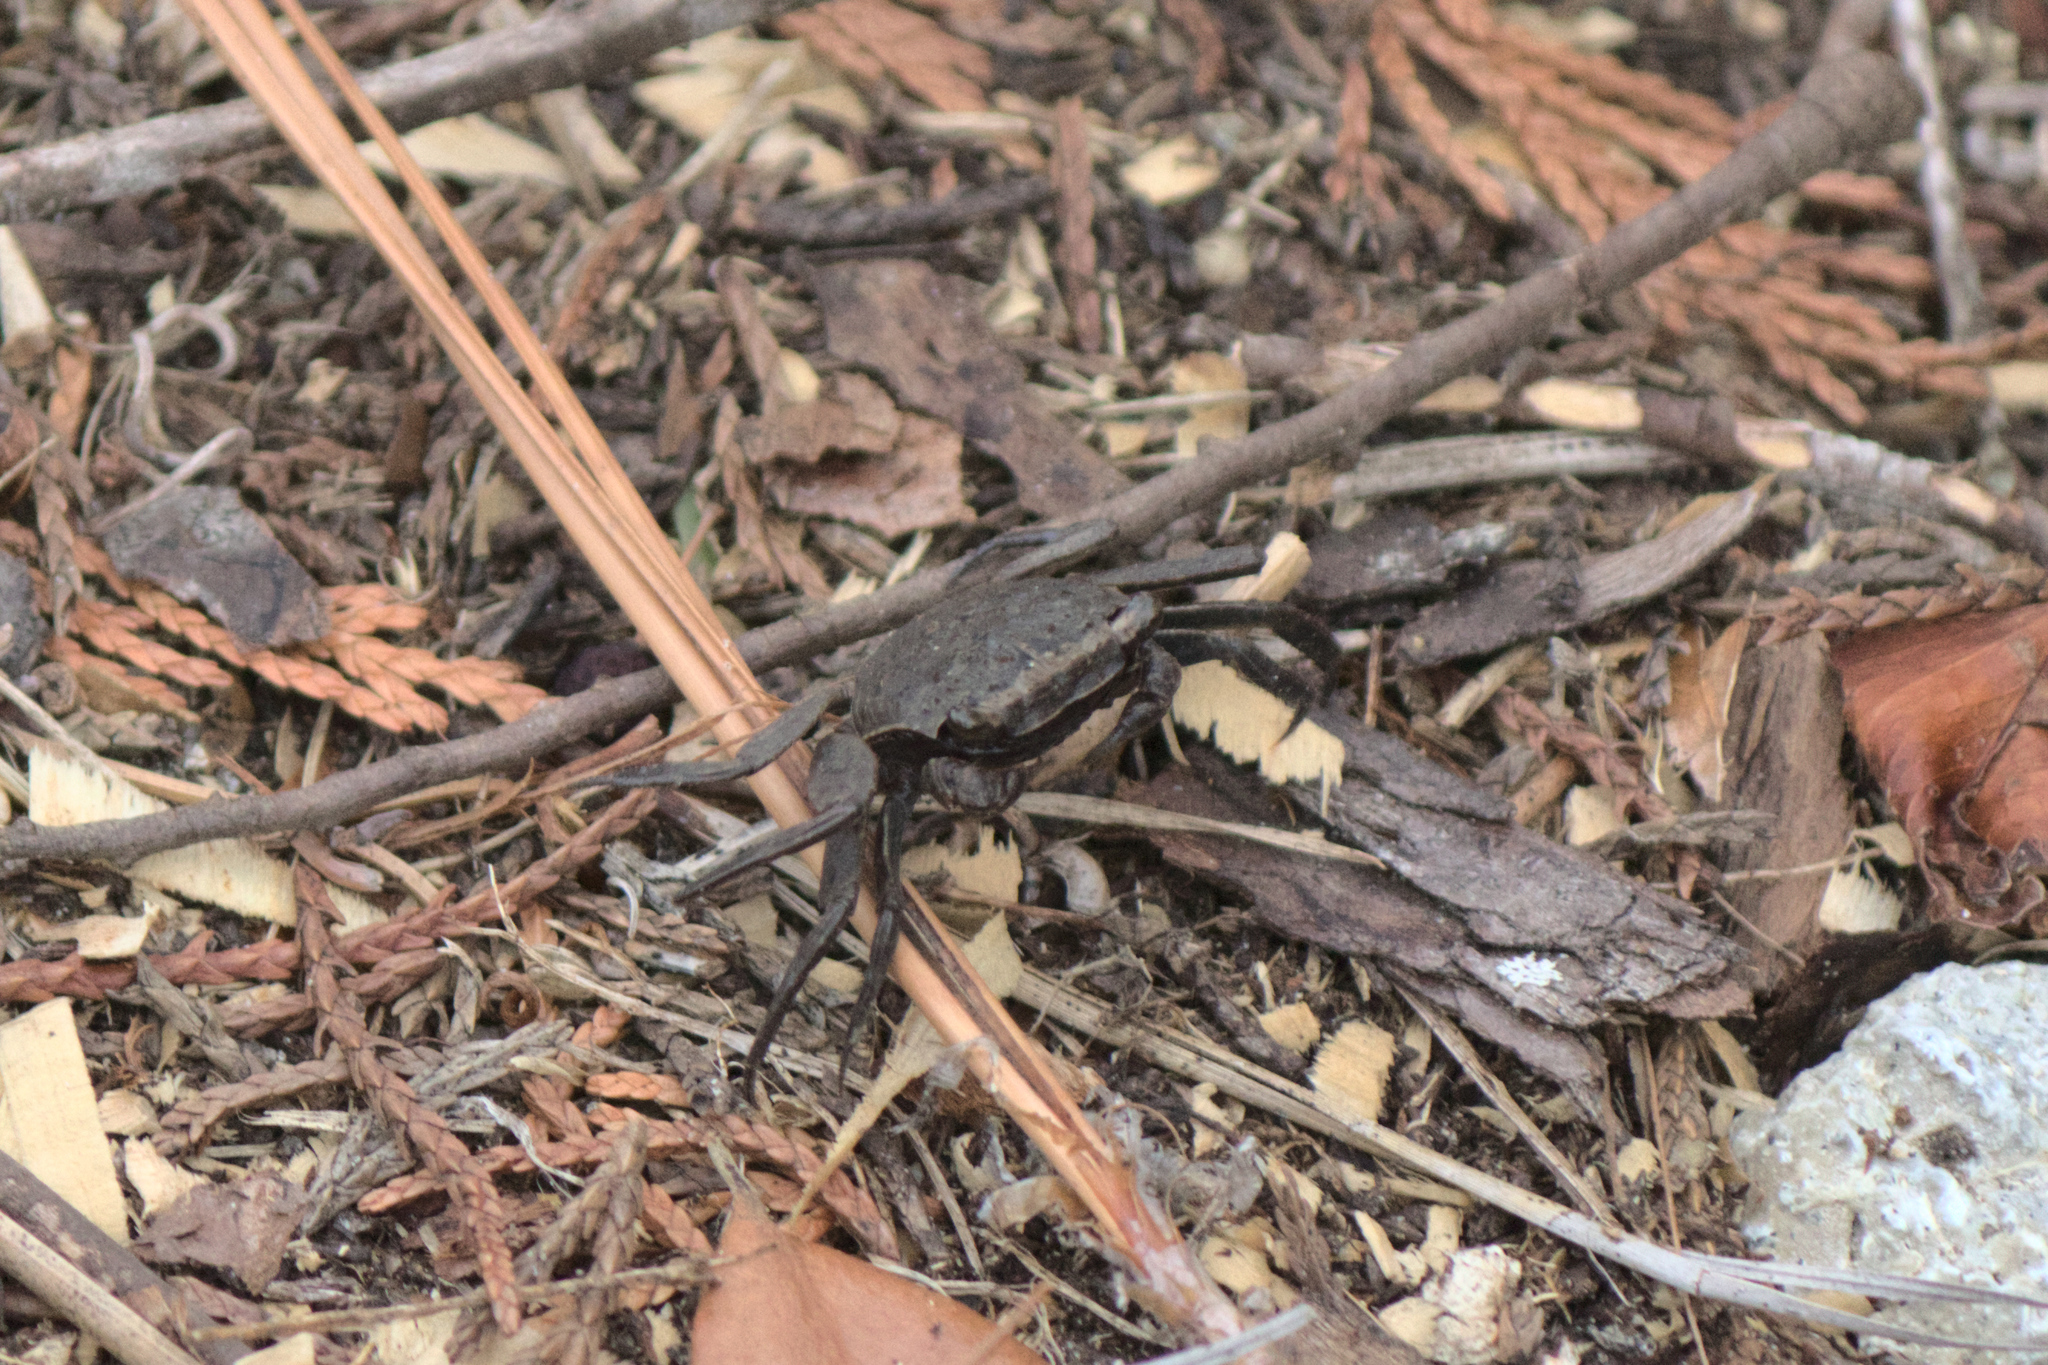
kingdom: Animalia
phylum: Arthropoda
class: Malacostraca
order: Decapoda
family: Sesarmidae
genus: Armases
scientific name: Armases cinereum
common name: Squareback marsh crab
